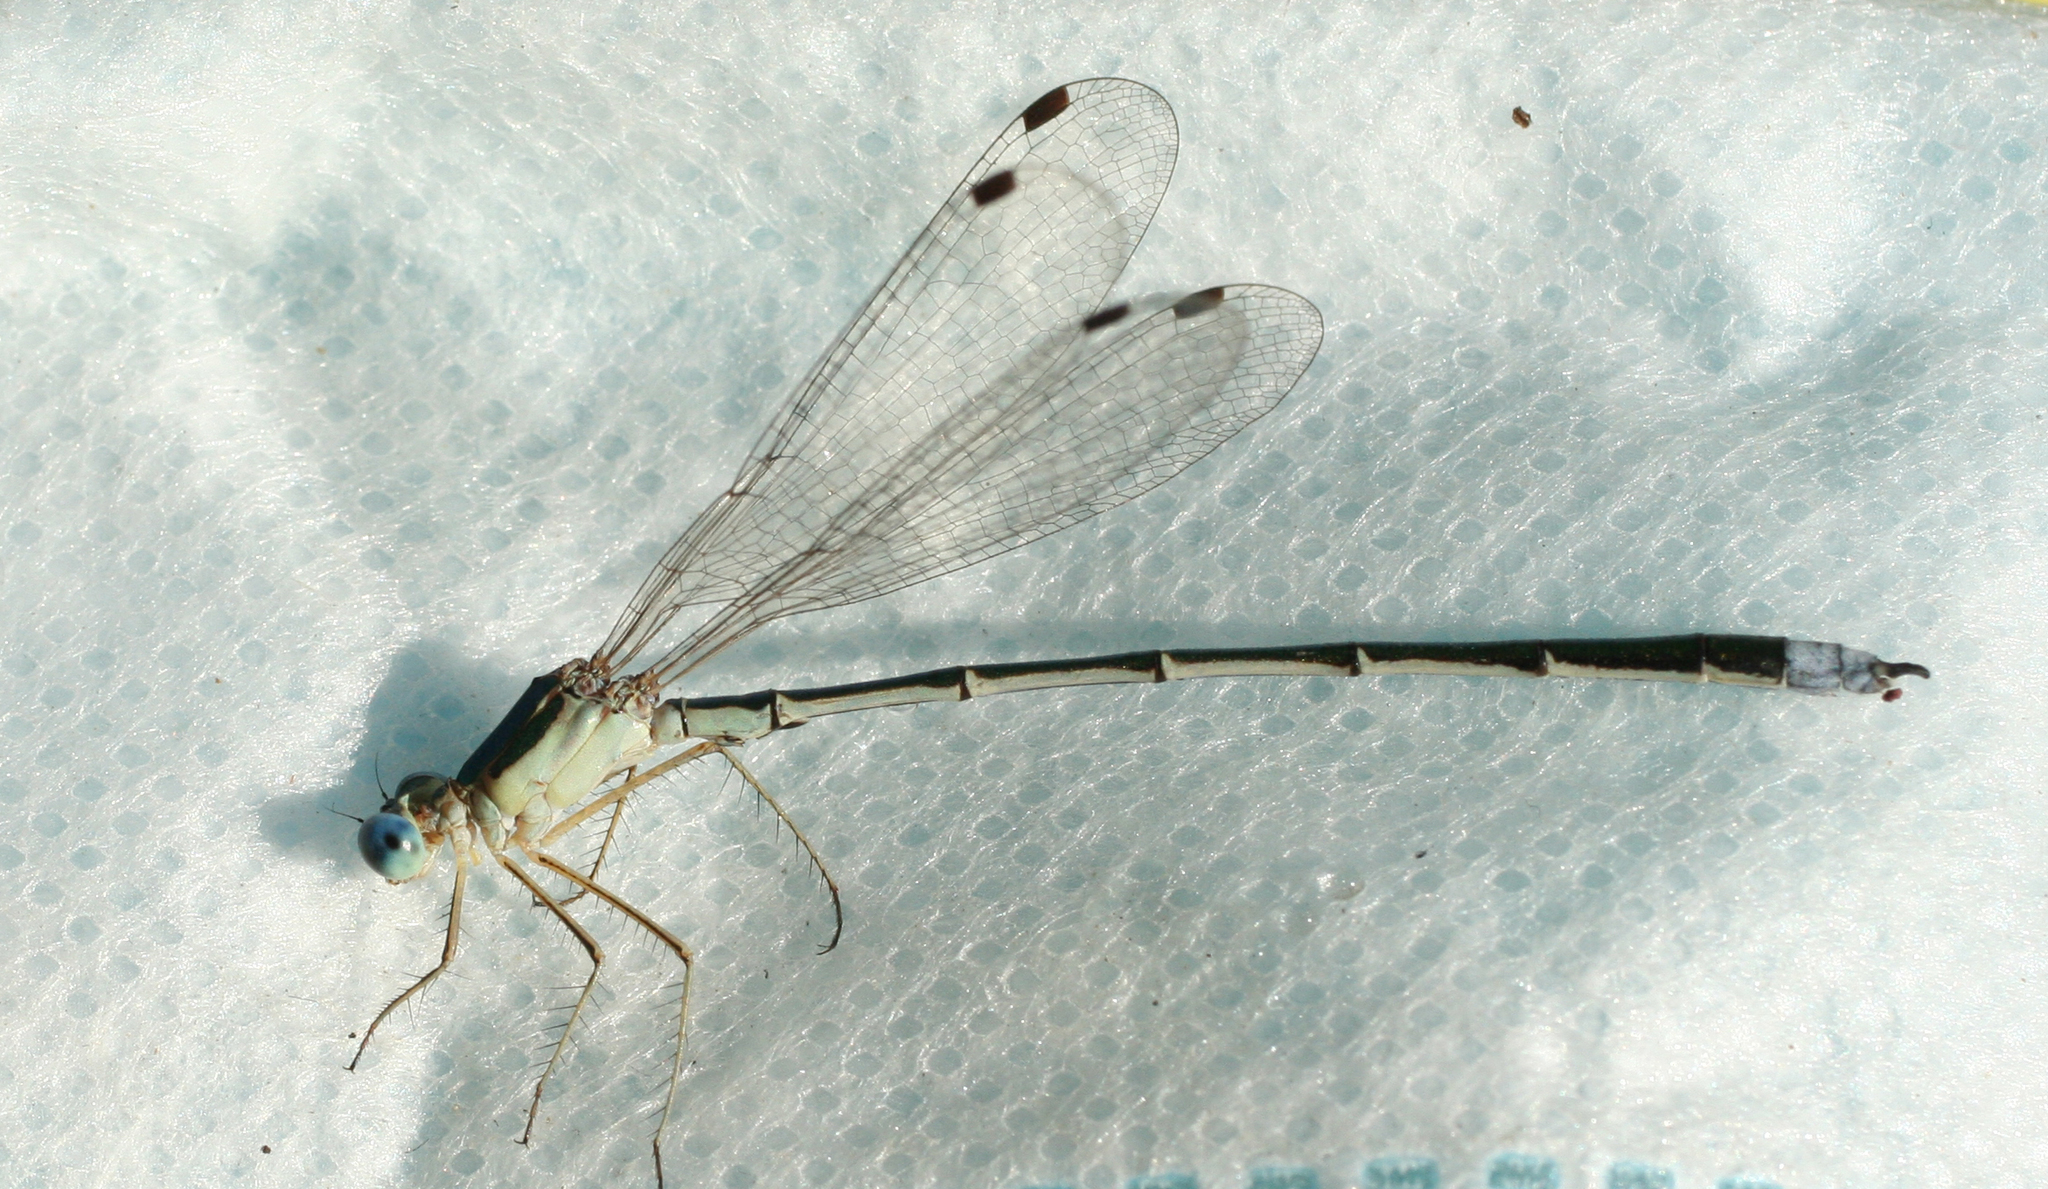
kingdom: Animalia
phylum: Arthropoda
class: Insecta
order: Odonata
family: Lestidae
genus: Lestes
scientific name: Lestes japonicus
